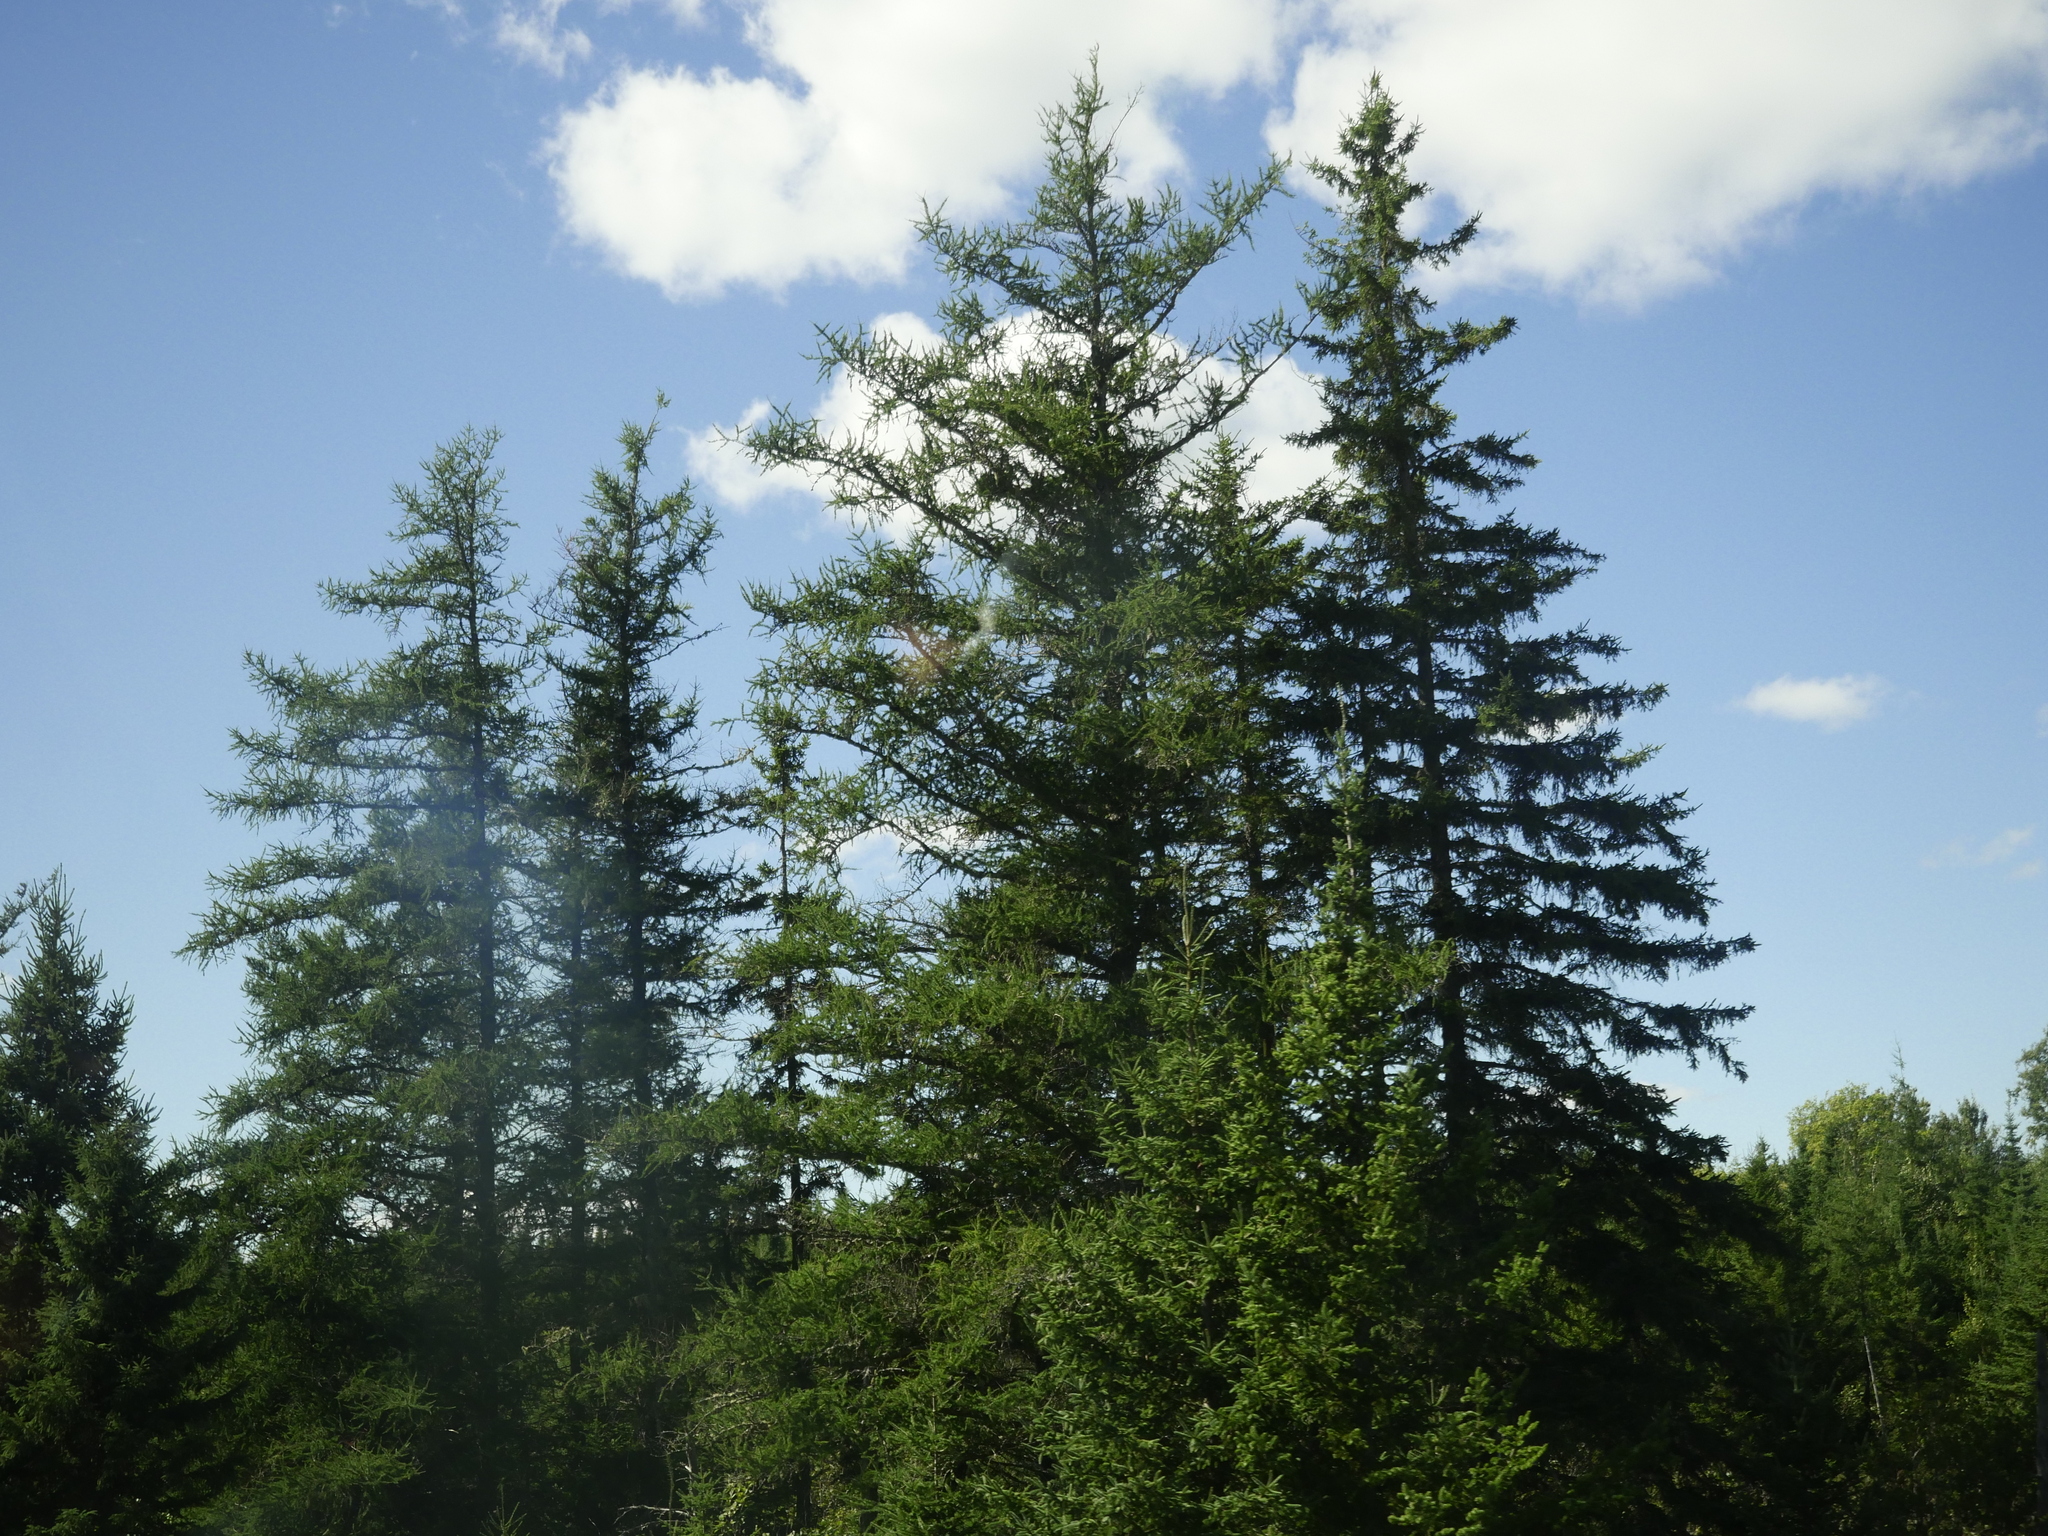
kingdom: Plantae
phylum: Tracheophyta
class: Pinopsida
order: Pinales
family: Pinaceae
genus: Larix
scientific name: Larix laricina
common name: American larch
